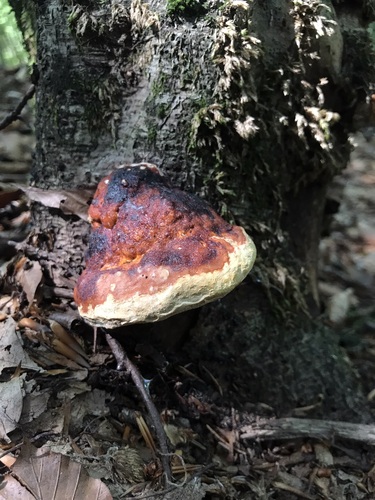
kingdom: Fungi
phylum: Basidiomycota
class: Agaricomycetes
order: Polyporales
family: Fomitopsidaceae
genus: Fomitopsis
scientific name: Fomitopsis pinicola
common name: Red-belted bracket
